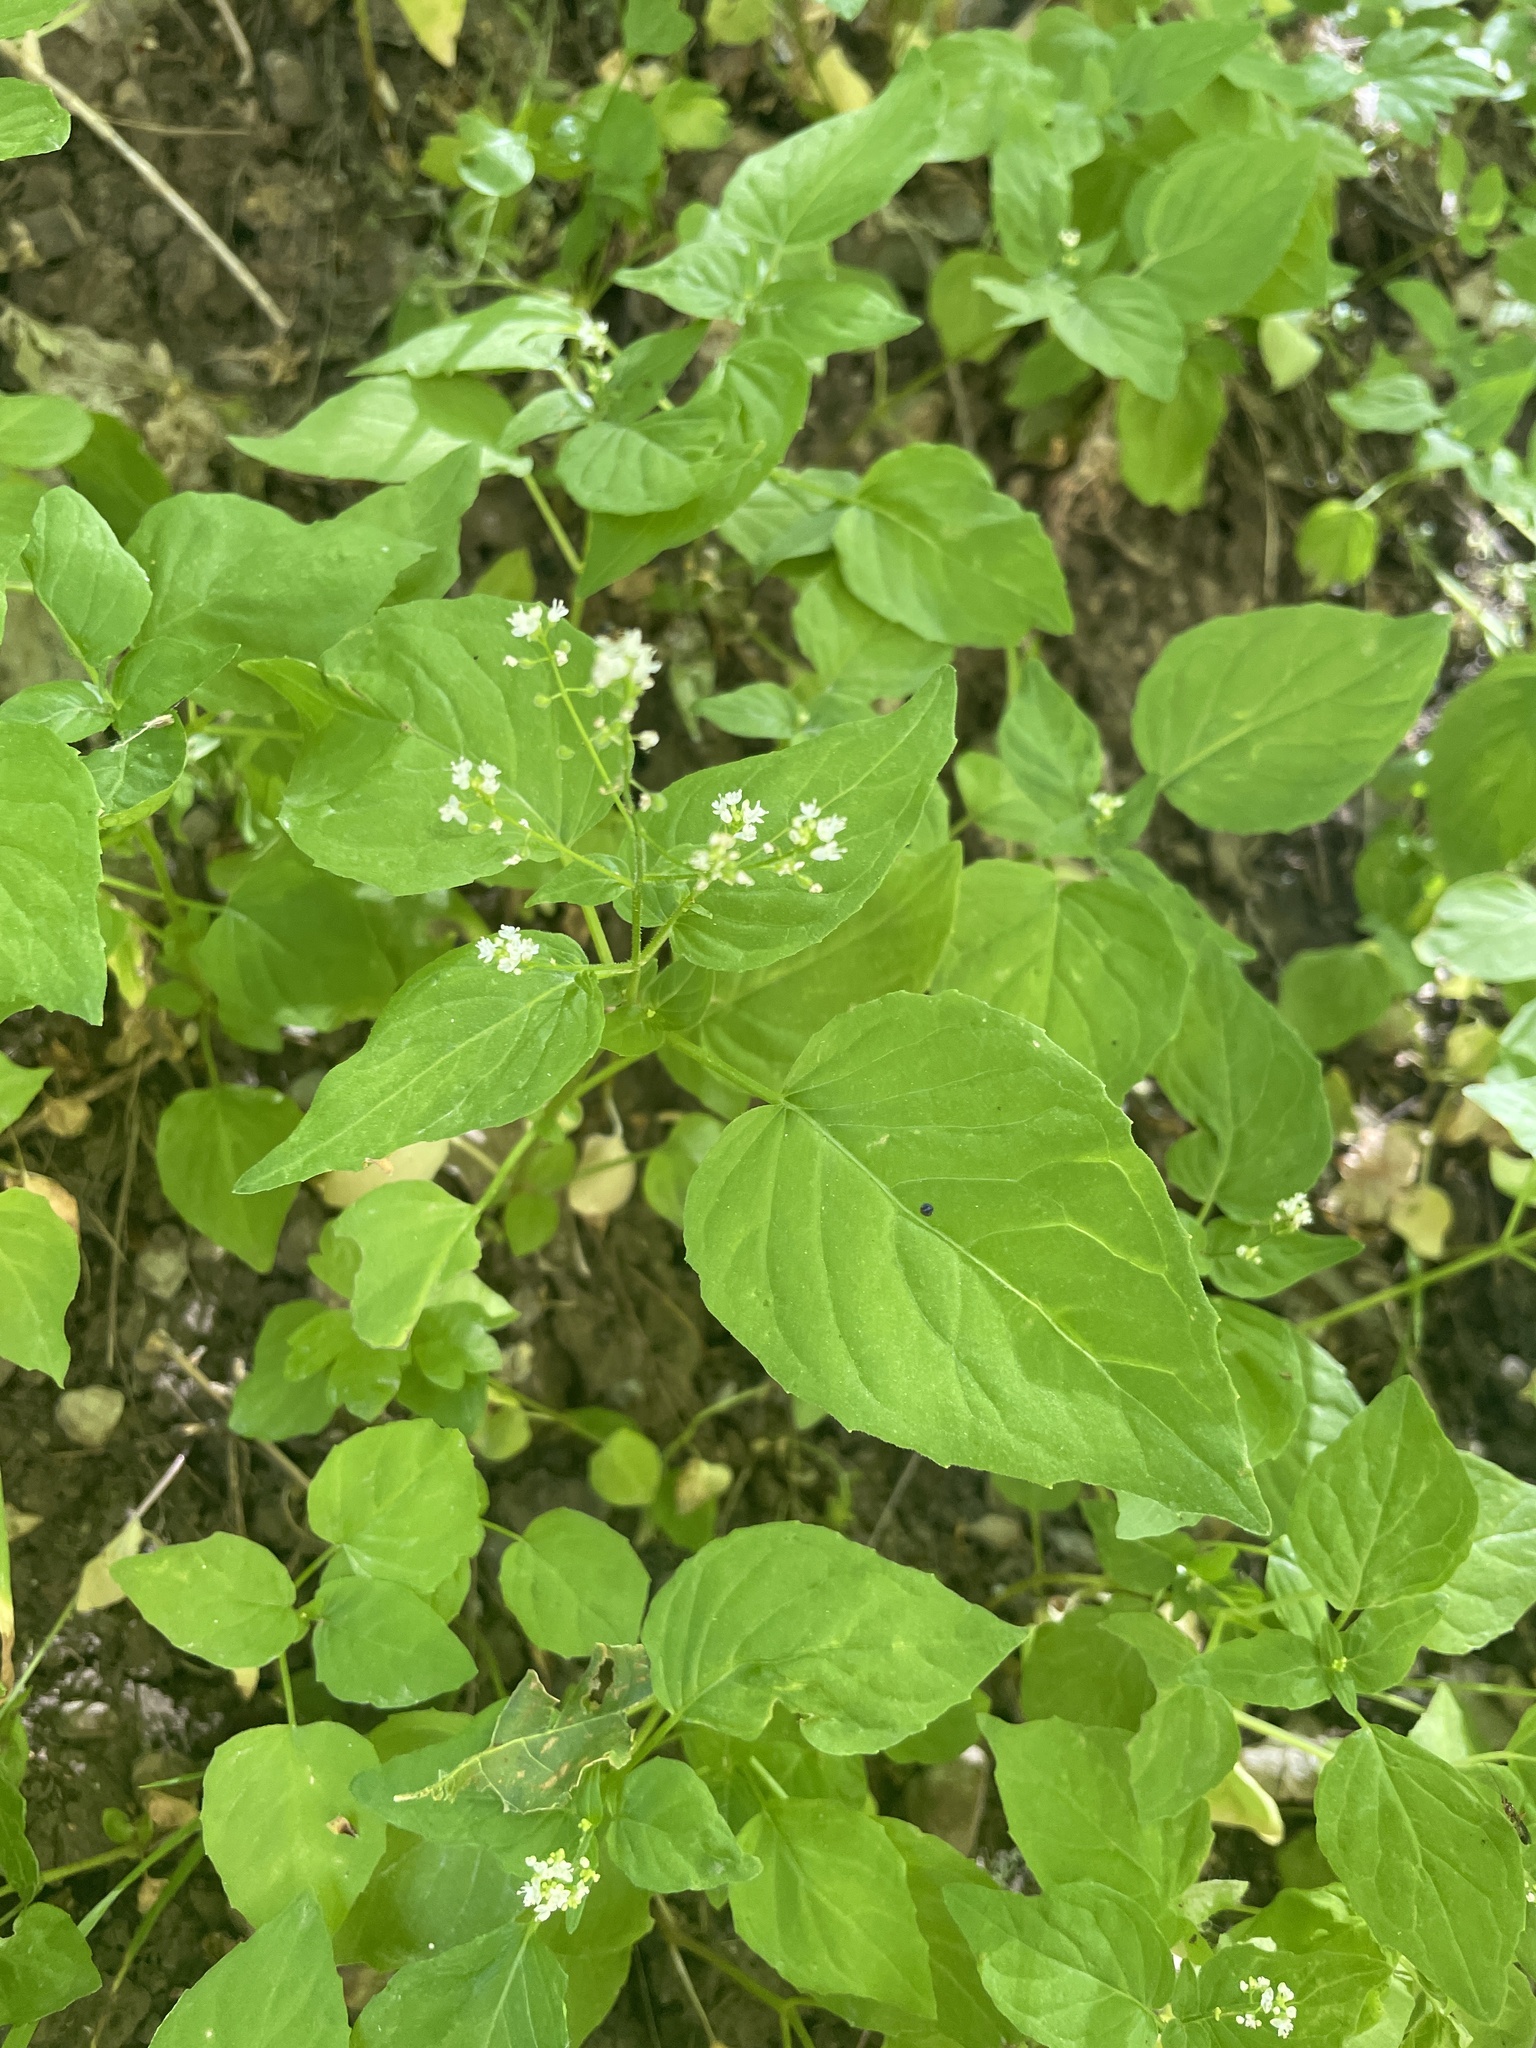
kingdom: Plantae
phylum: Tracheophyta
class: Magnoliopsida
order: Myrtales
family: Onagraceae
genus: Circaea
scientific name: Circaea alpina
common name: Alpine enchanter's-nightshade
